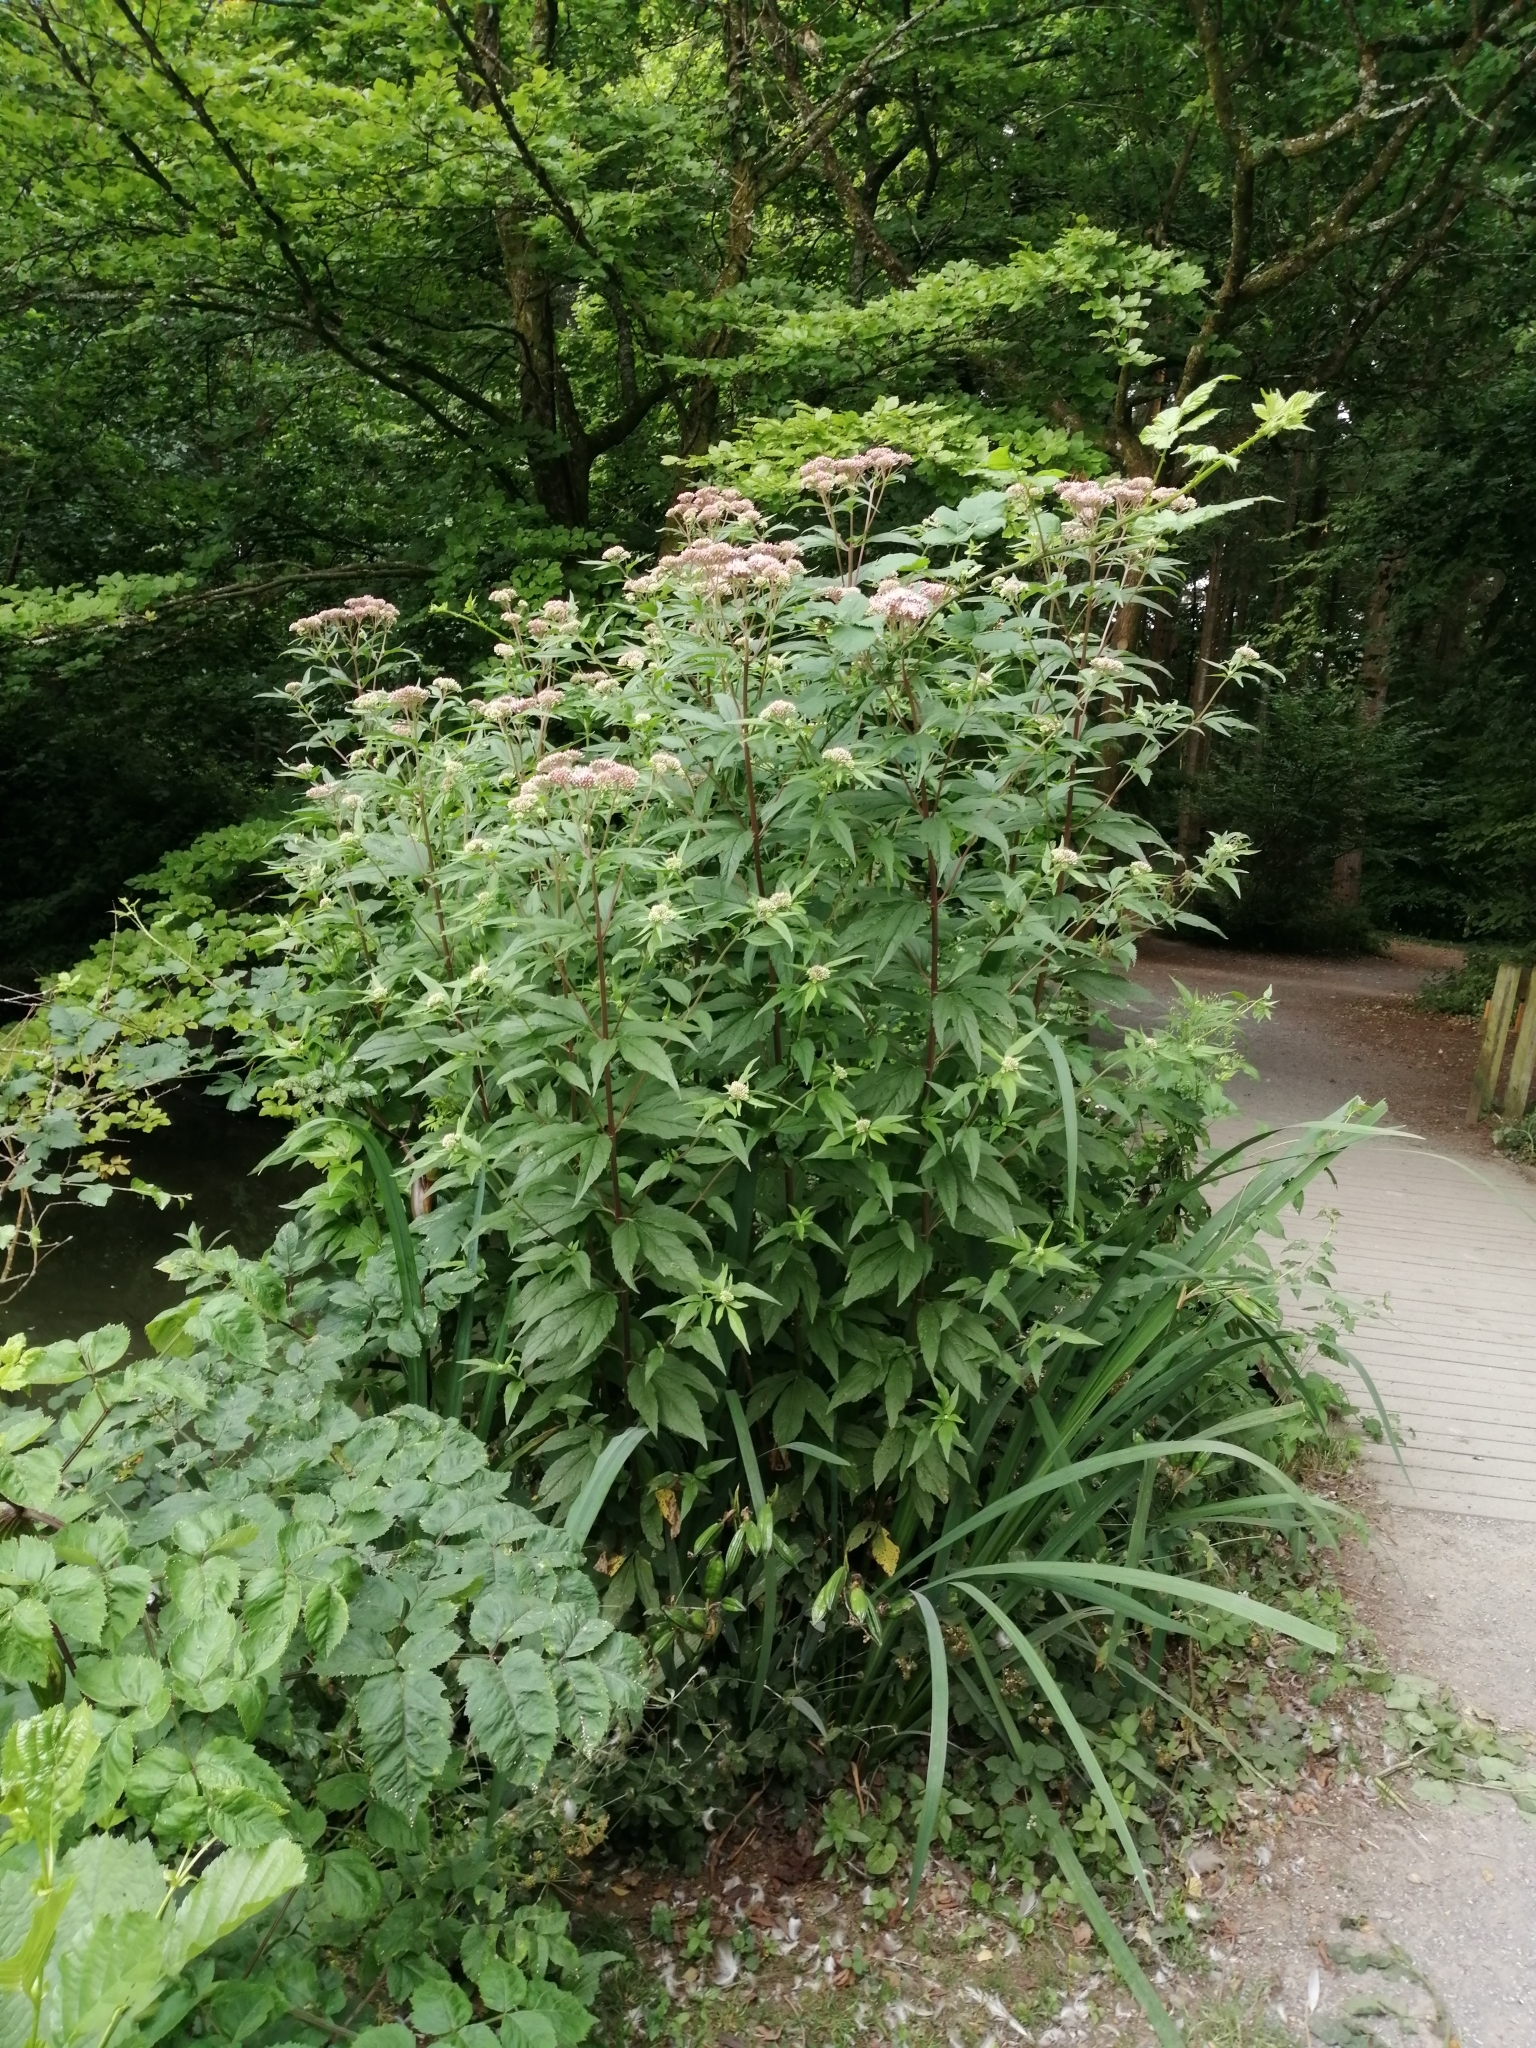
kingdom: Plantae
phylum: Tracheophyta
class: Magnoliopsida
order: Asterales
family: Asteraceae
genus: Eupatorium
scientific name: Eupatorium cannabinum
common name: Hemp-agrimony
